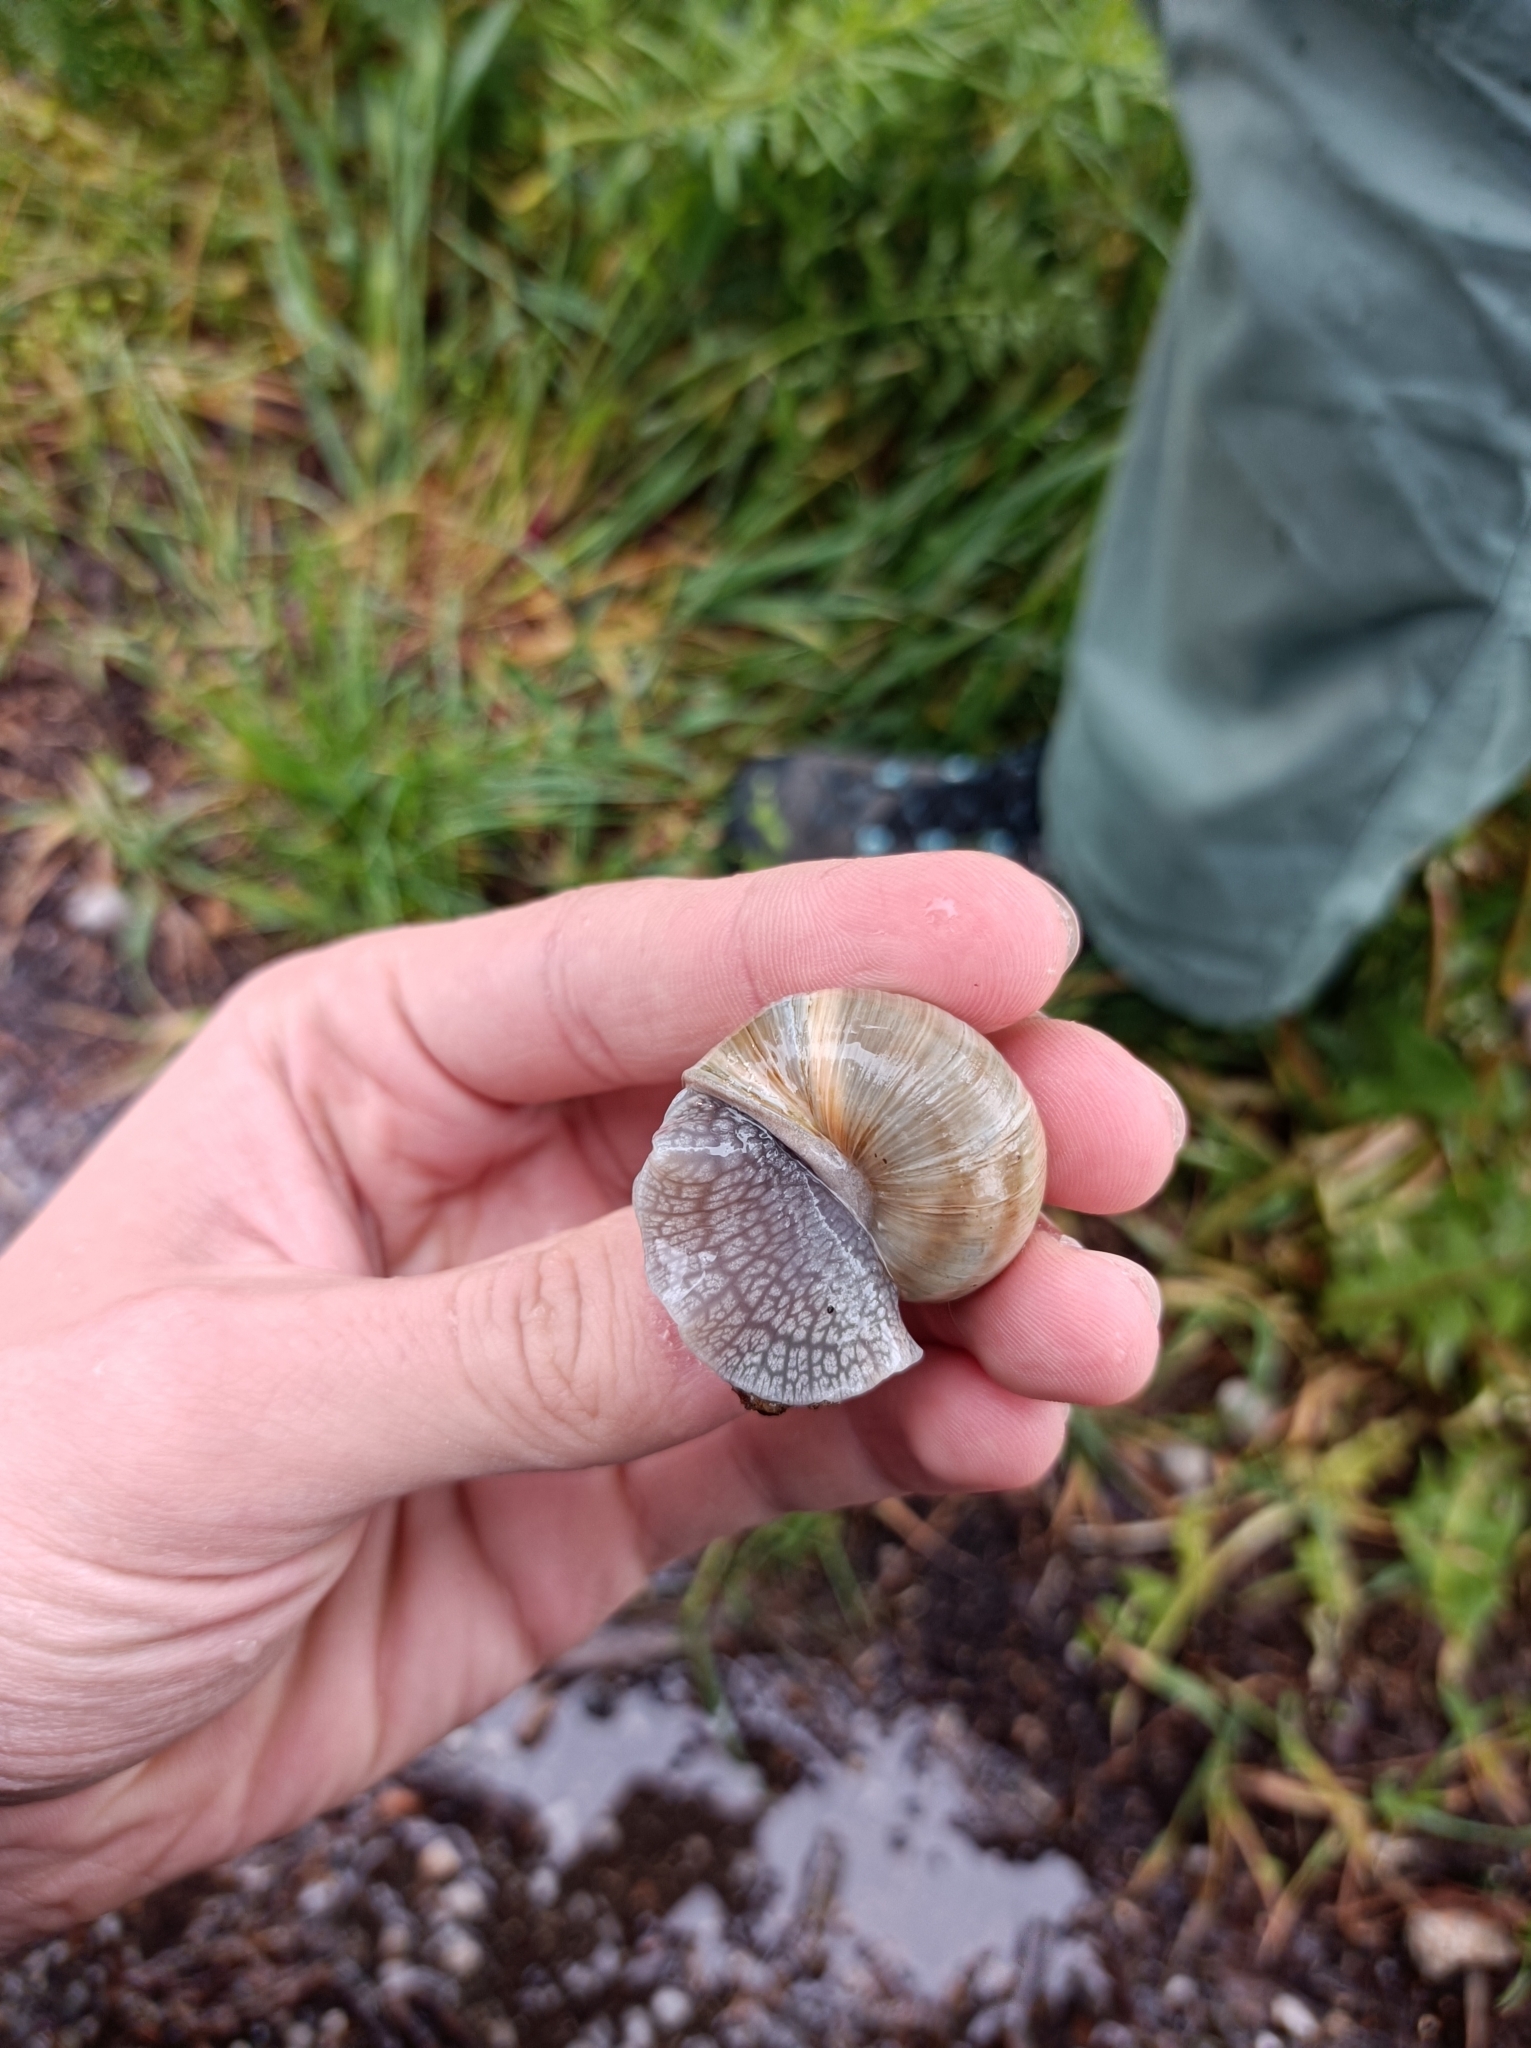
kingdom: Animalia
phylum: Mollusca
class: Gastropoda
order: Stylommatophora
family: Helicidae
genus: Helix
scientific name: Helix lutescens
